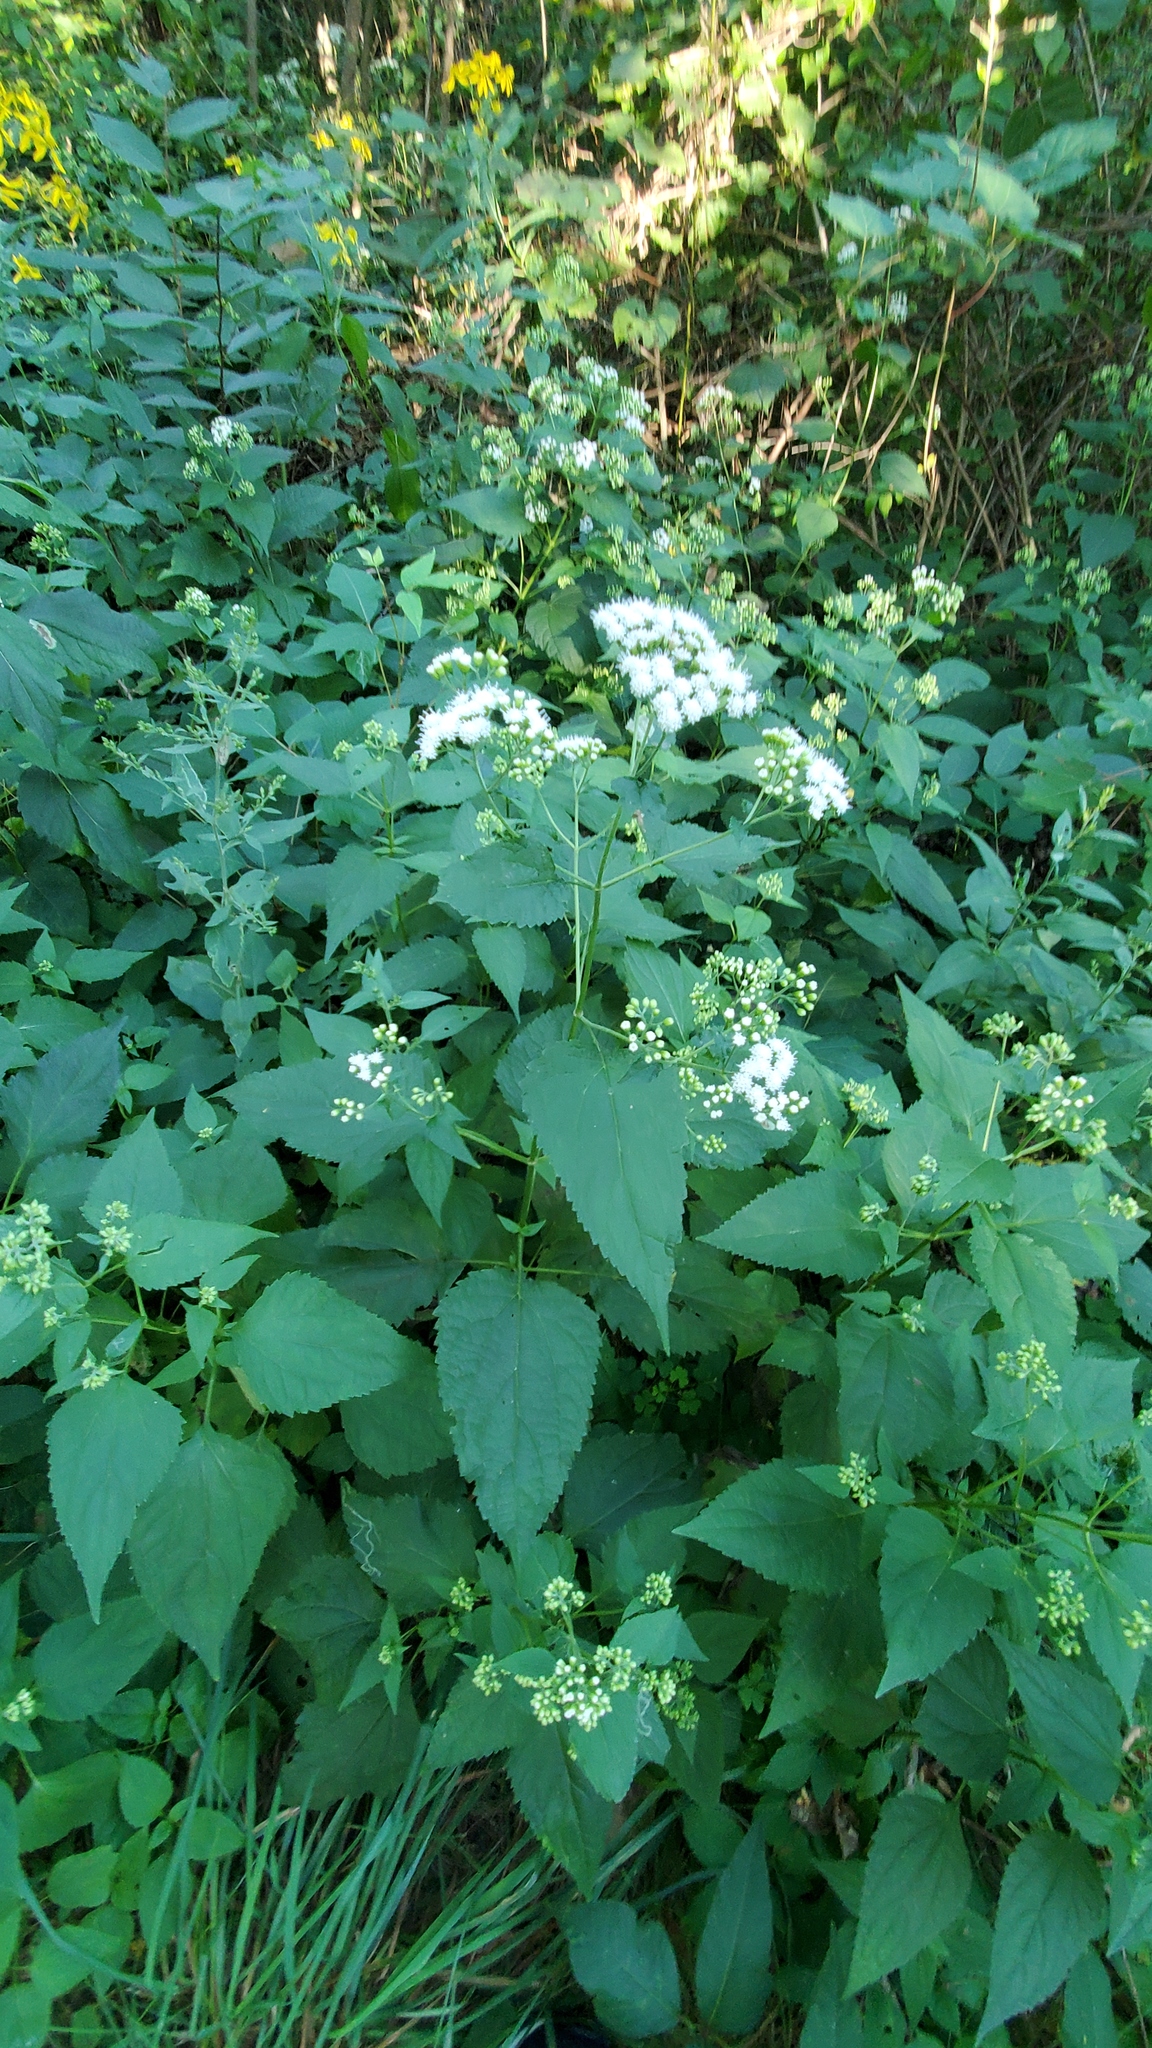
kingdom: Plantae
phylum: Tracheophyta
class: Magnoliopsida
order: Asterales
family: Asteraceae
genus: Ageratina
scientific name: Ageratina altissima
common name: White snakeroot
